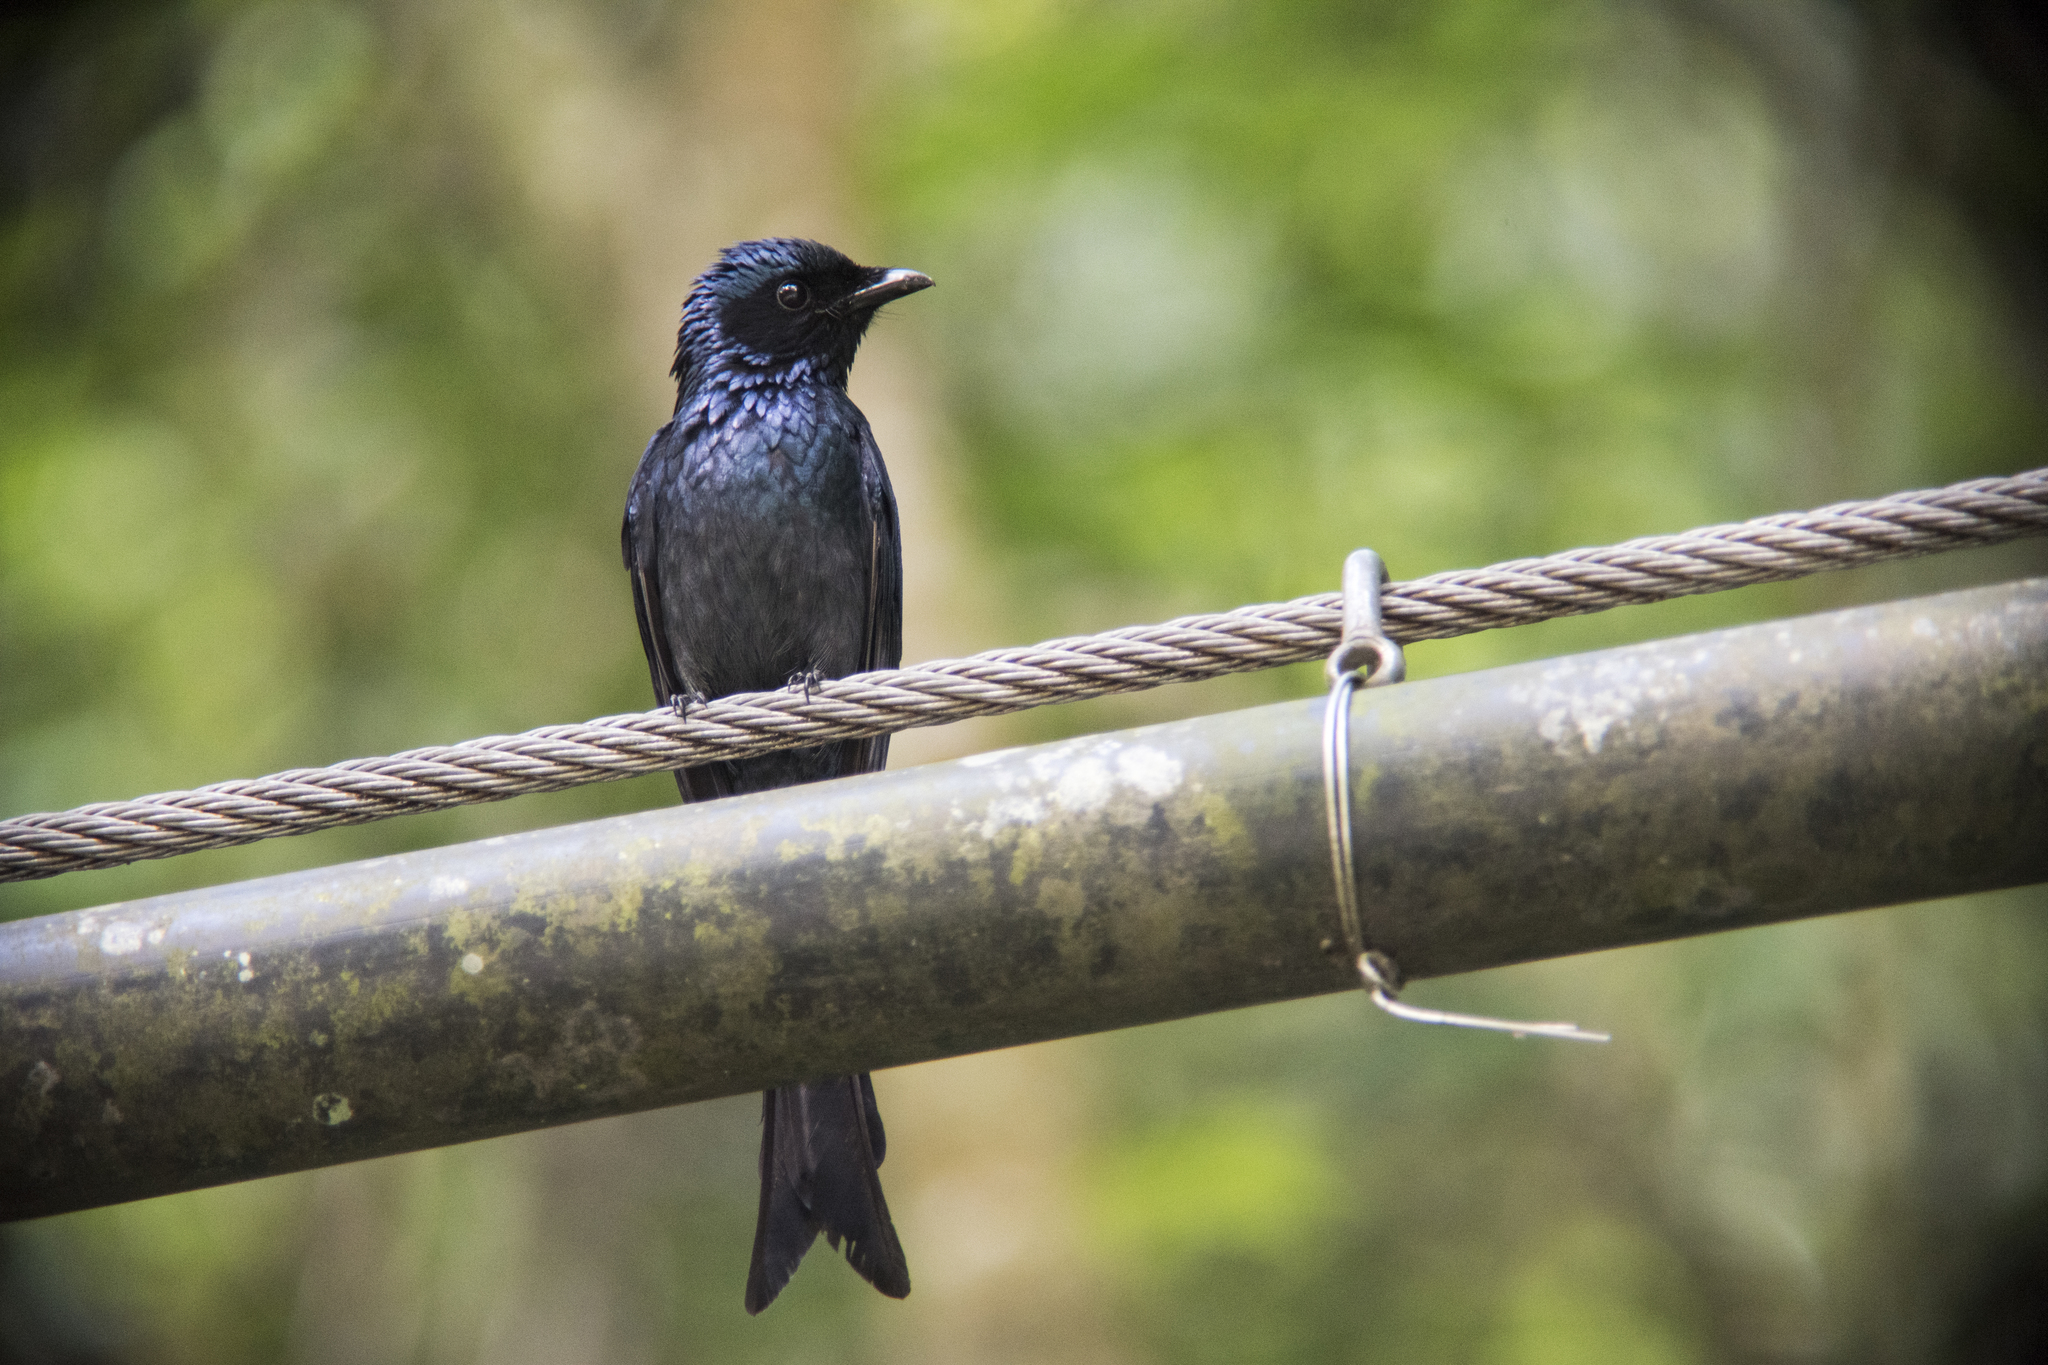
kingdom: Animalia
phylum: Chordata
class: Aves
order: Passeriformes
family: Dicruridae
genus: Dicrurus
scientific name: Dicrurus aeneus
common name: Bronzed drongo
